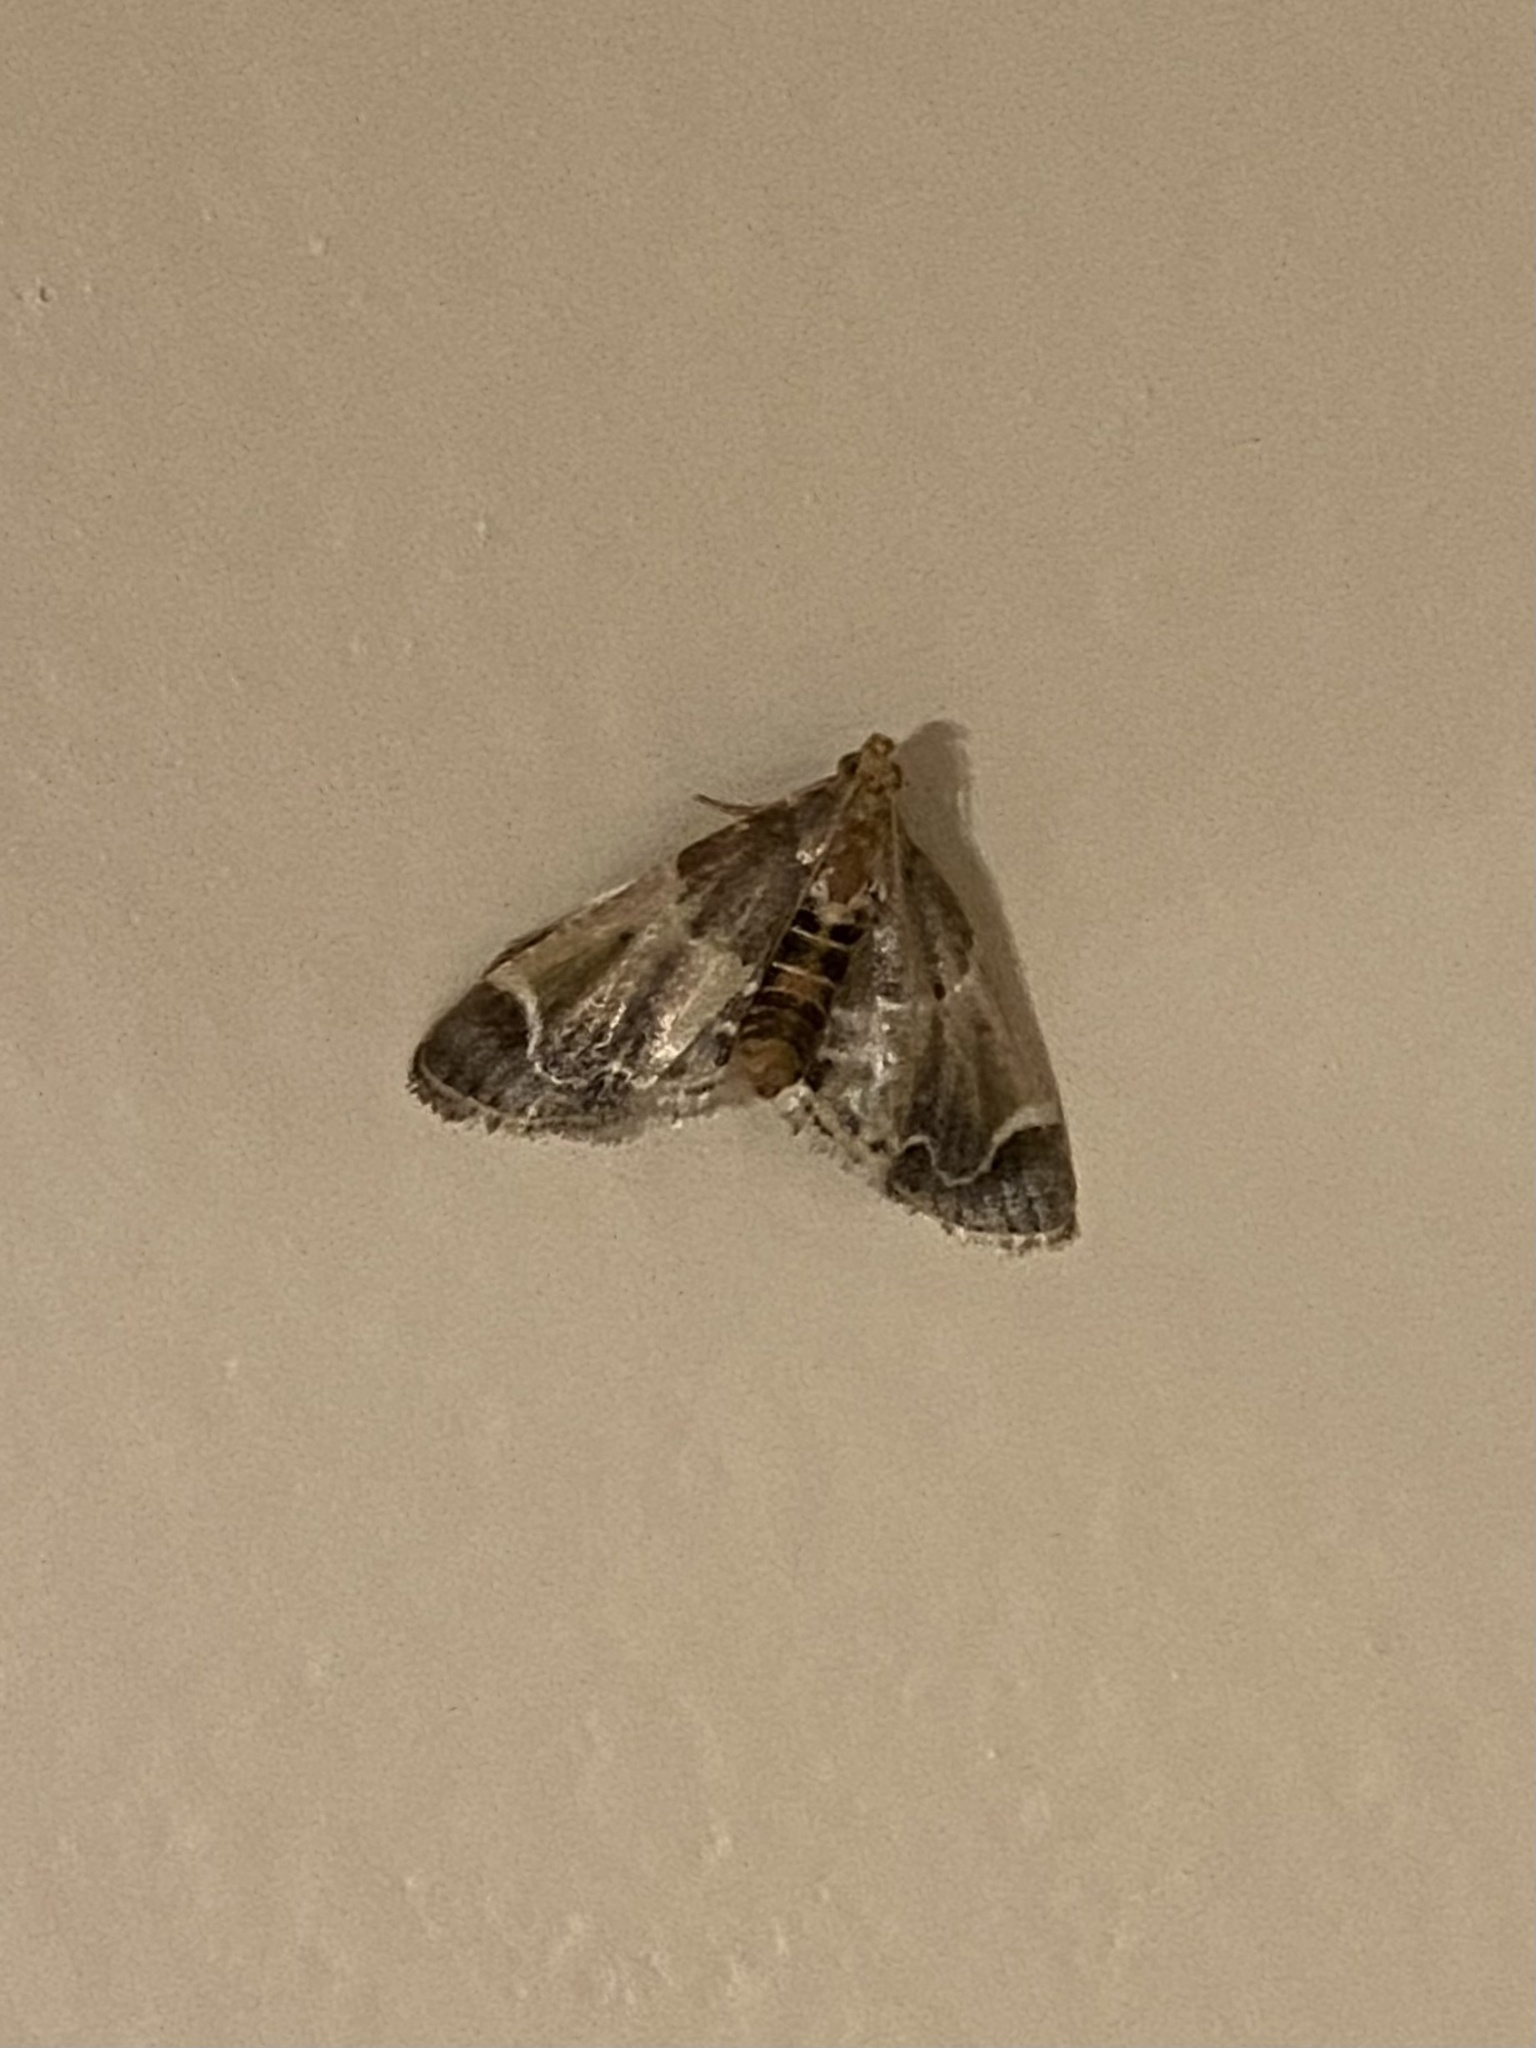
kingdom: Animalia
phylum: Arthropoda
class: Insecta
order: Lepidoptera
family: Pyralidae
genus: Pyralis
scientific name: Pyralis farinalis
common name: Meal moth
